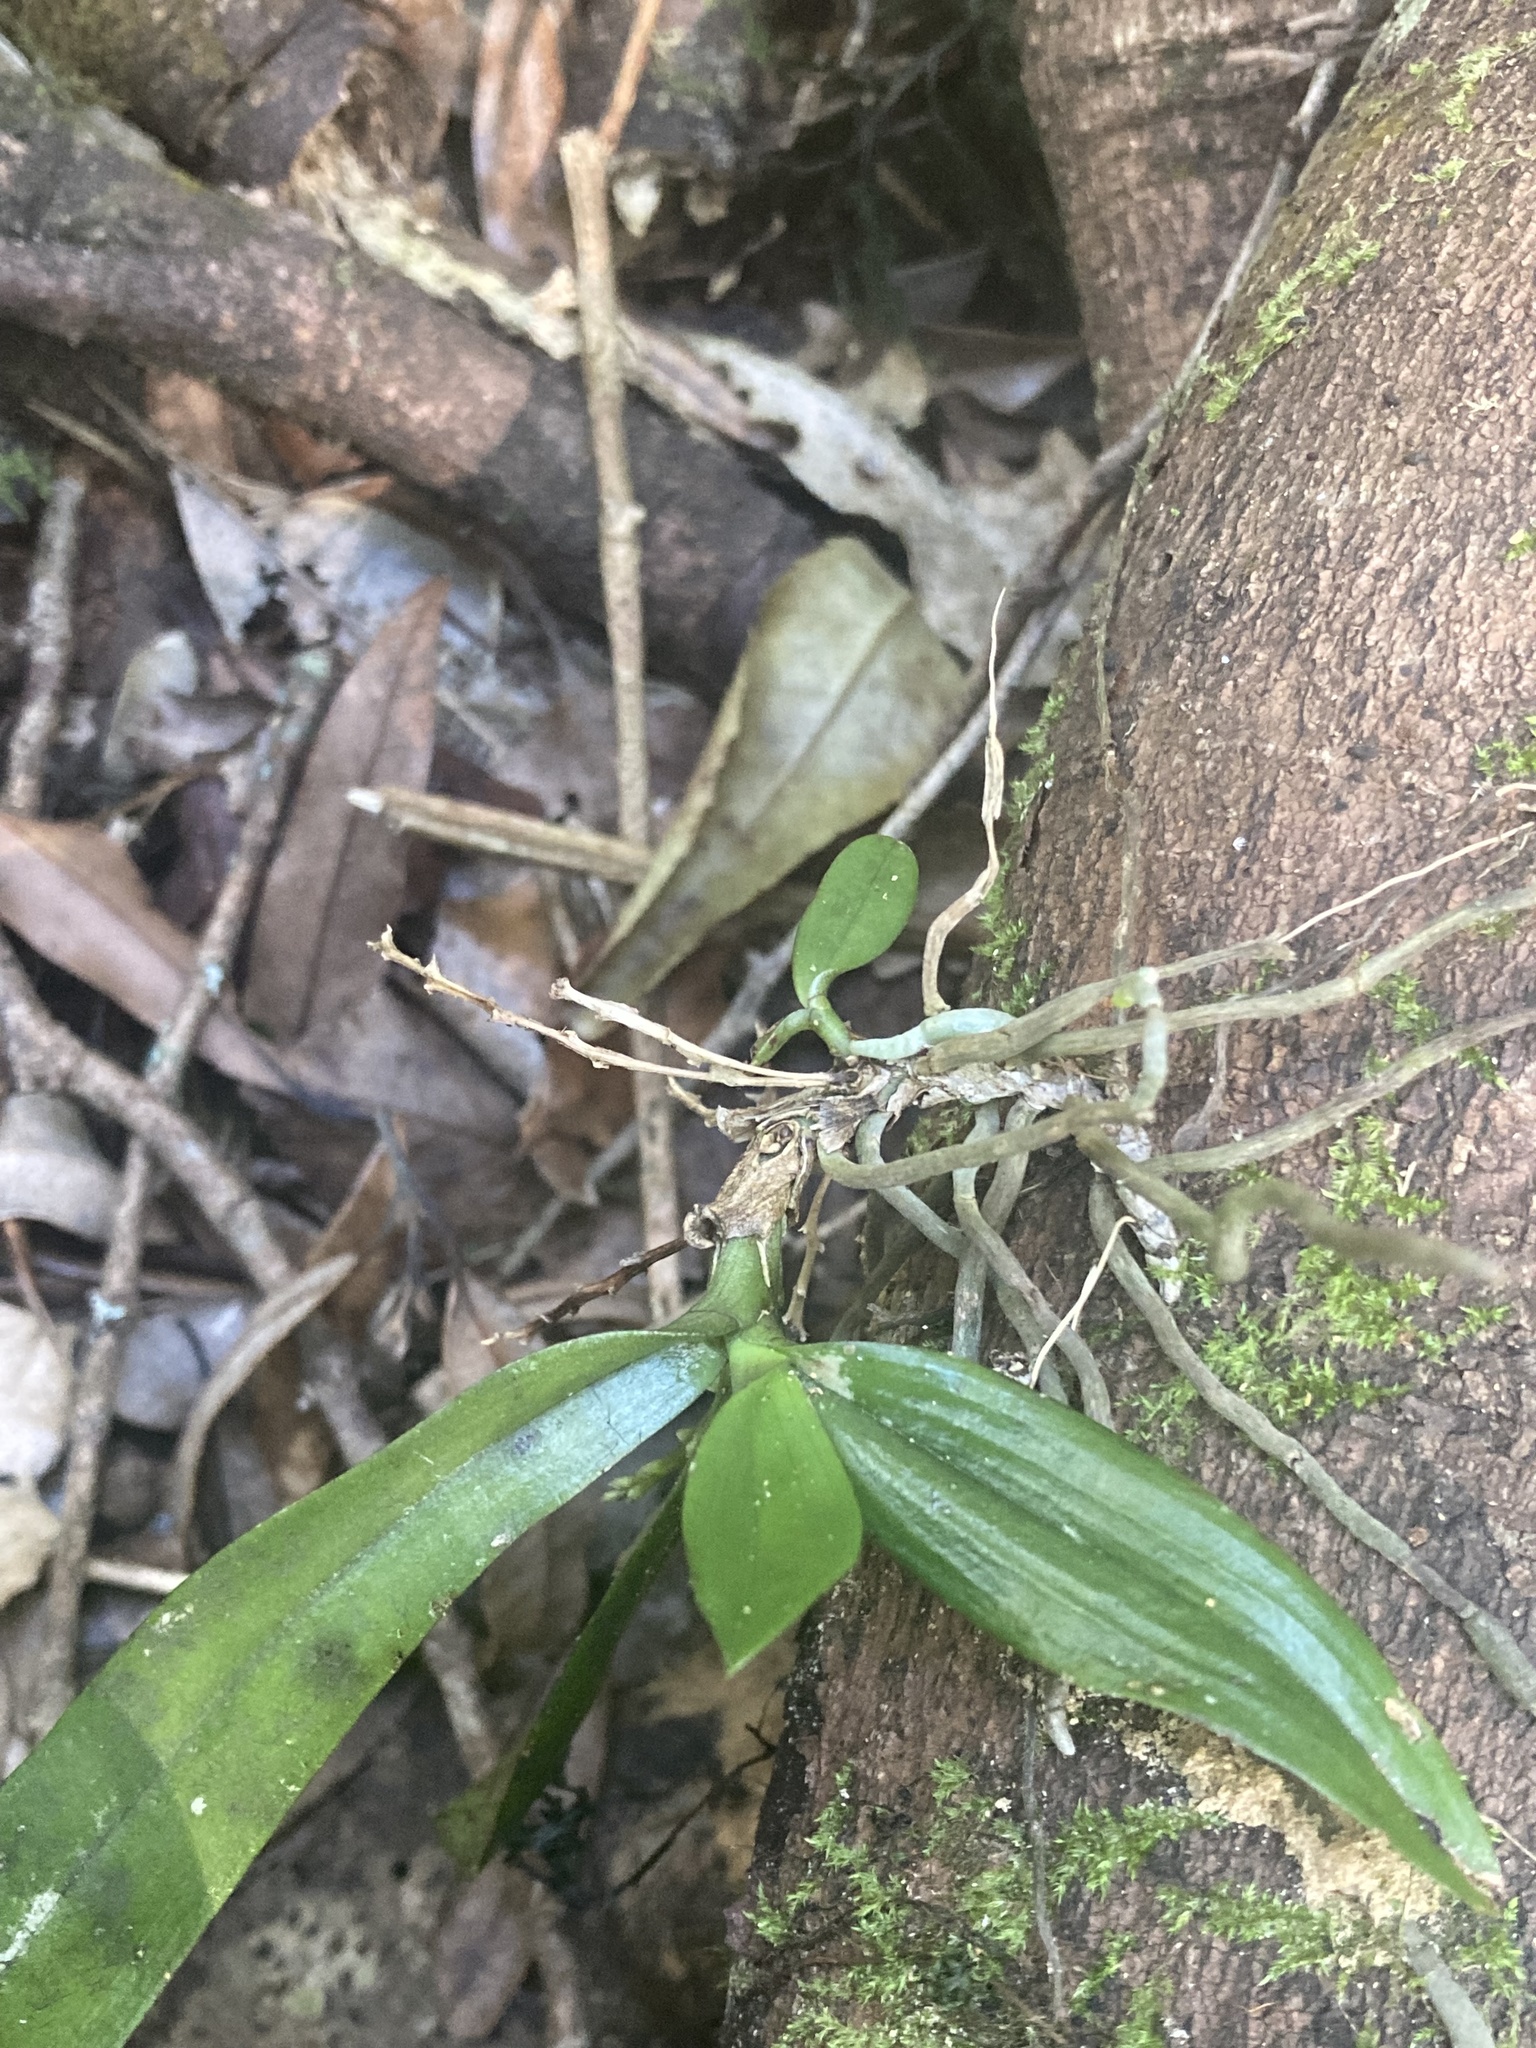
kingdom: Plantae
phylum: Tracheophyta
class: Liliopsida
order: Asparagales
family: Orchidaceae
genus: Drymoanthus
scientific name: Drymoanthus adversus
